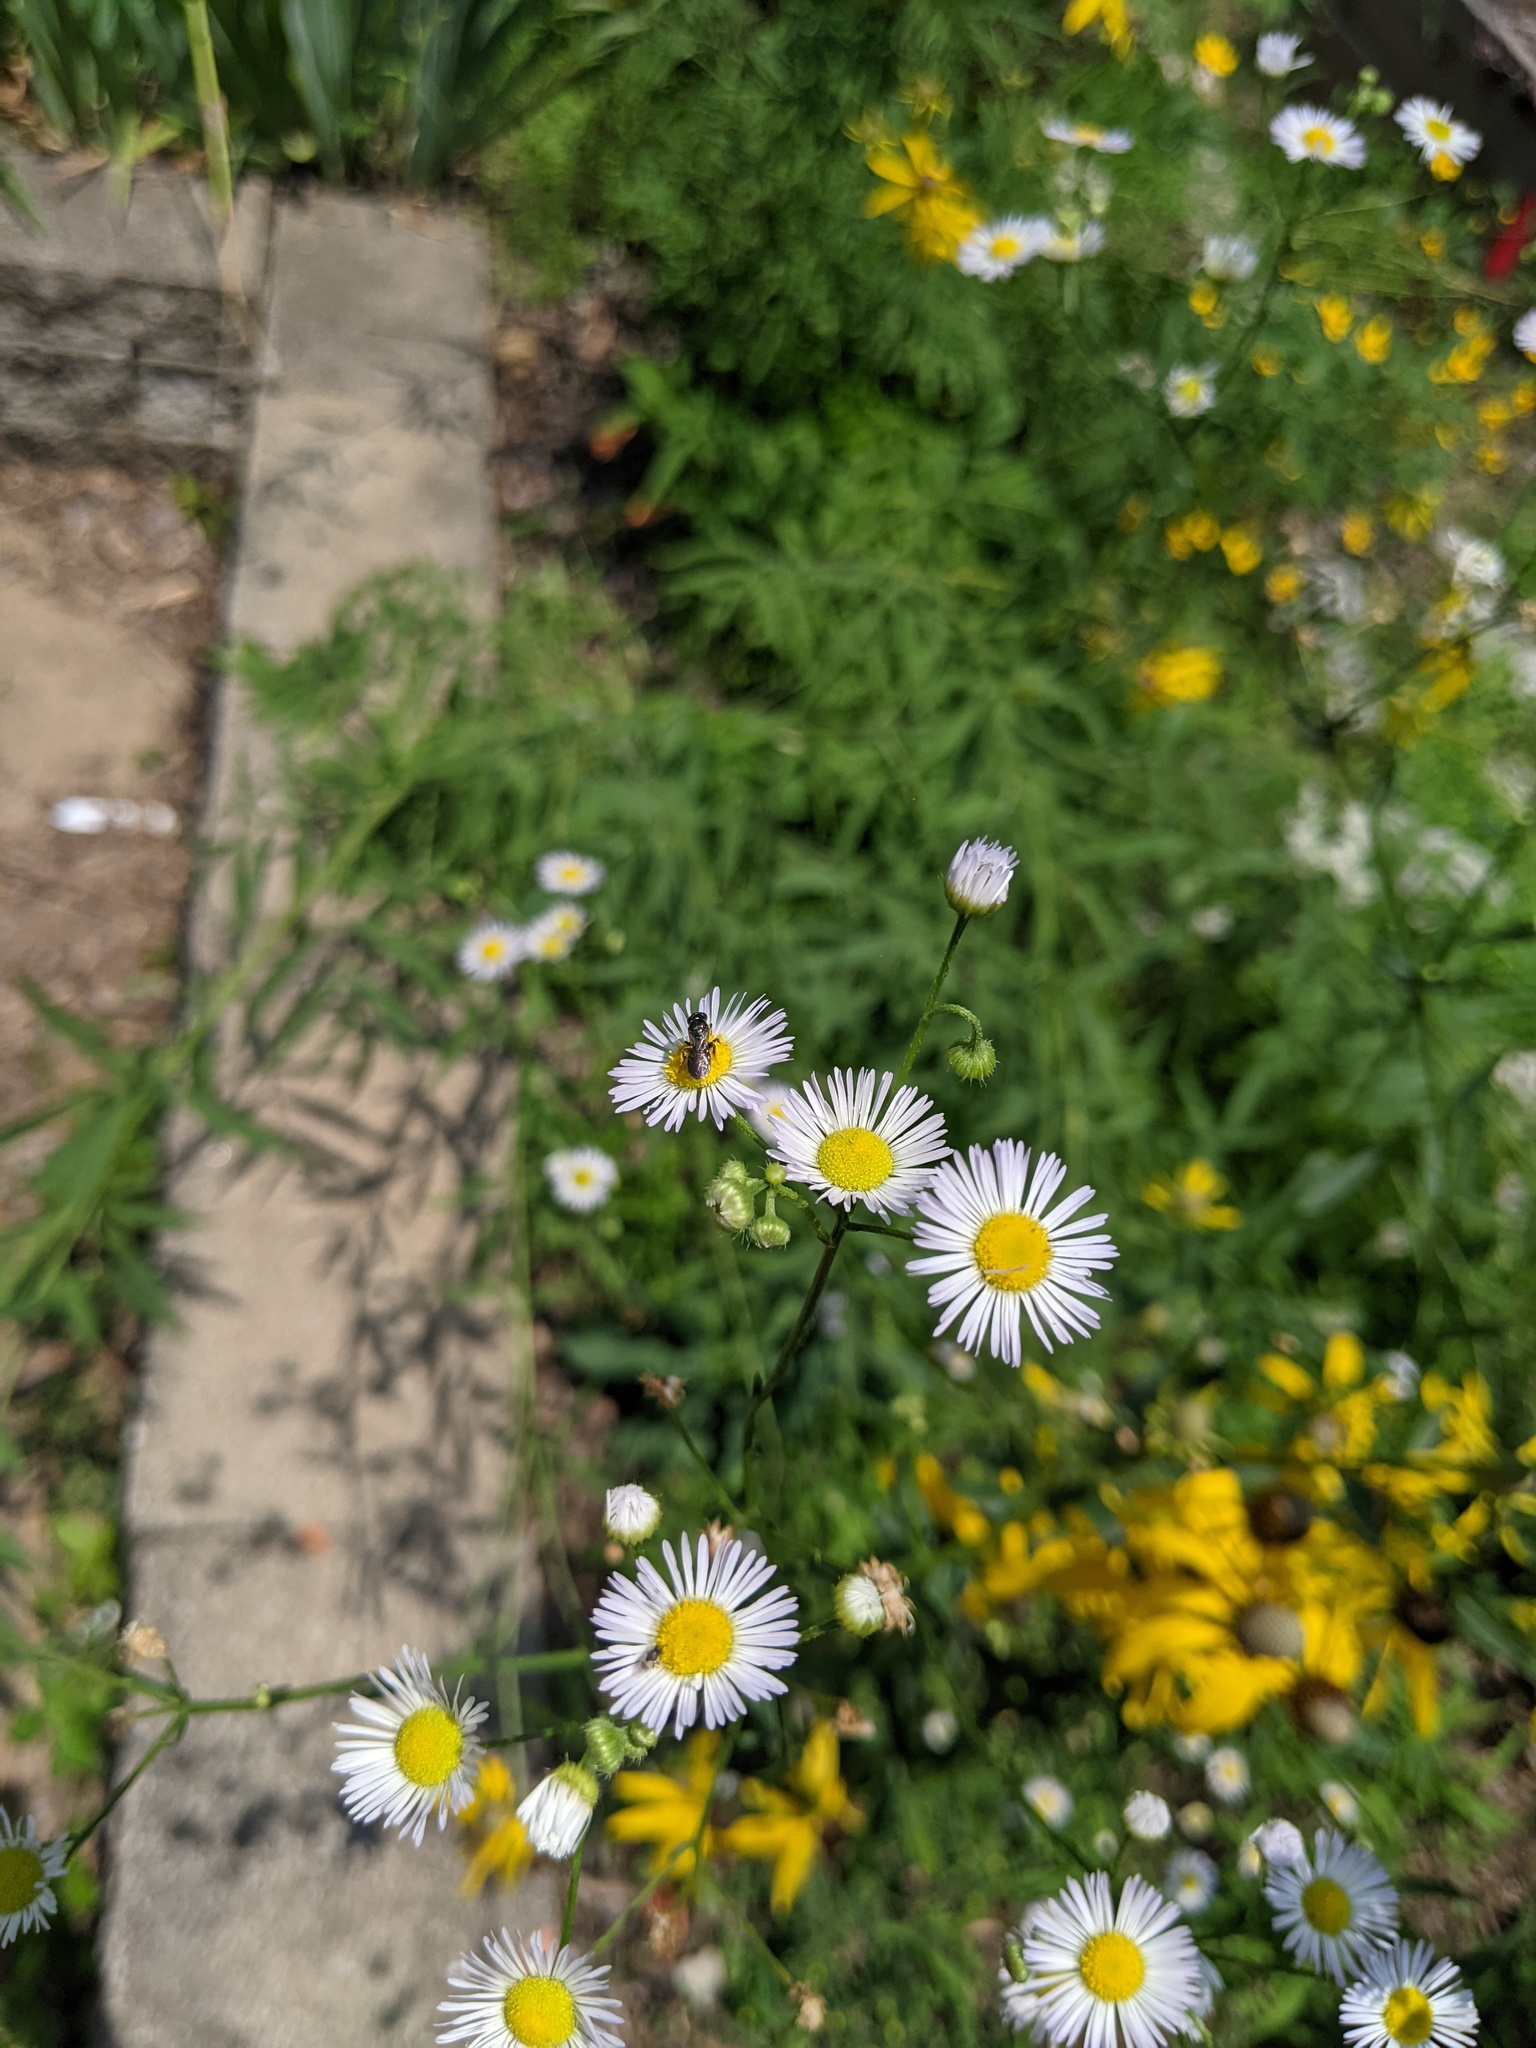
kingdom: Animalia
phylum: Arthropoda
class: Insecta
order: Hymenoptera
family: Apidae
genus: Zadontomerus
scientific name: Zadontomerus
